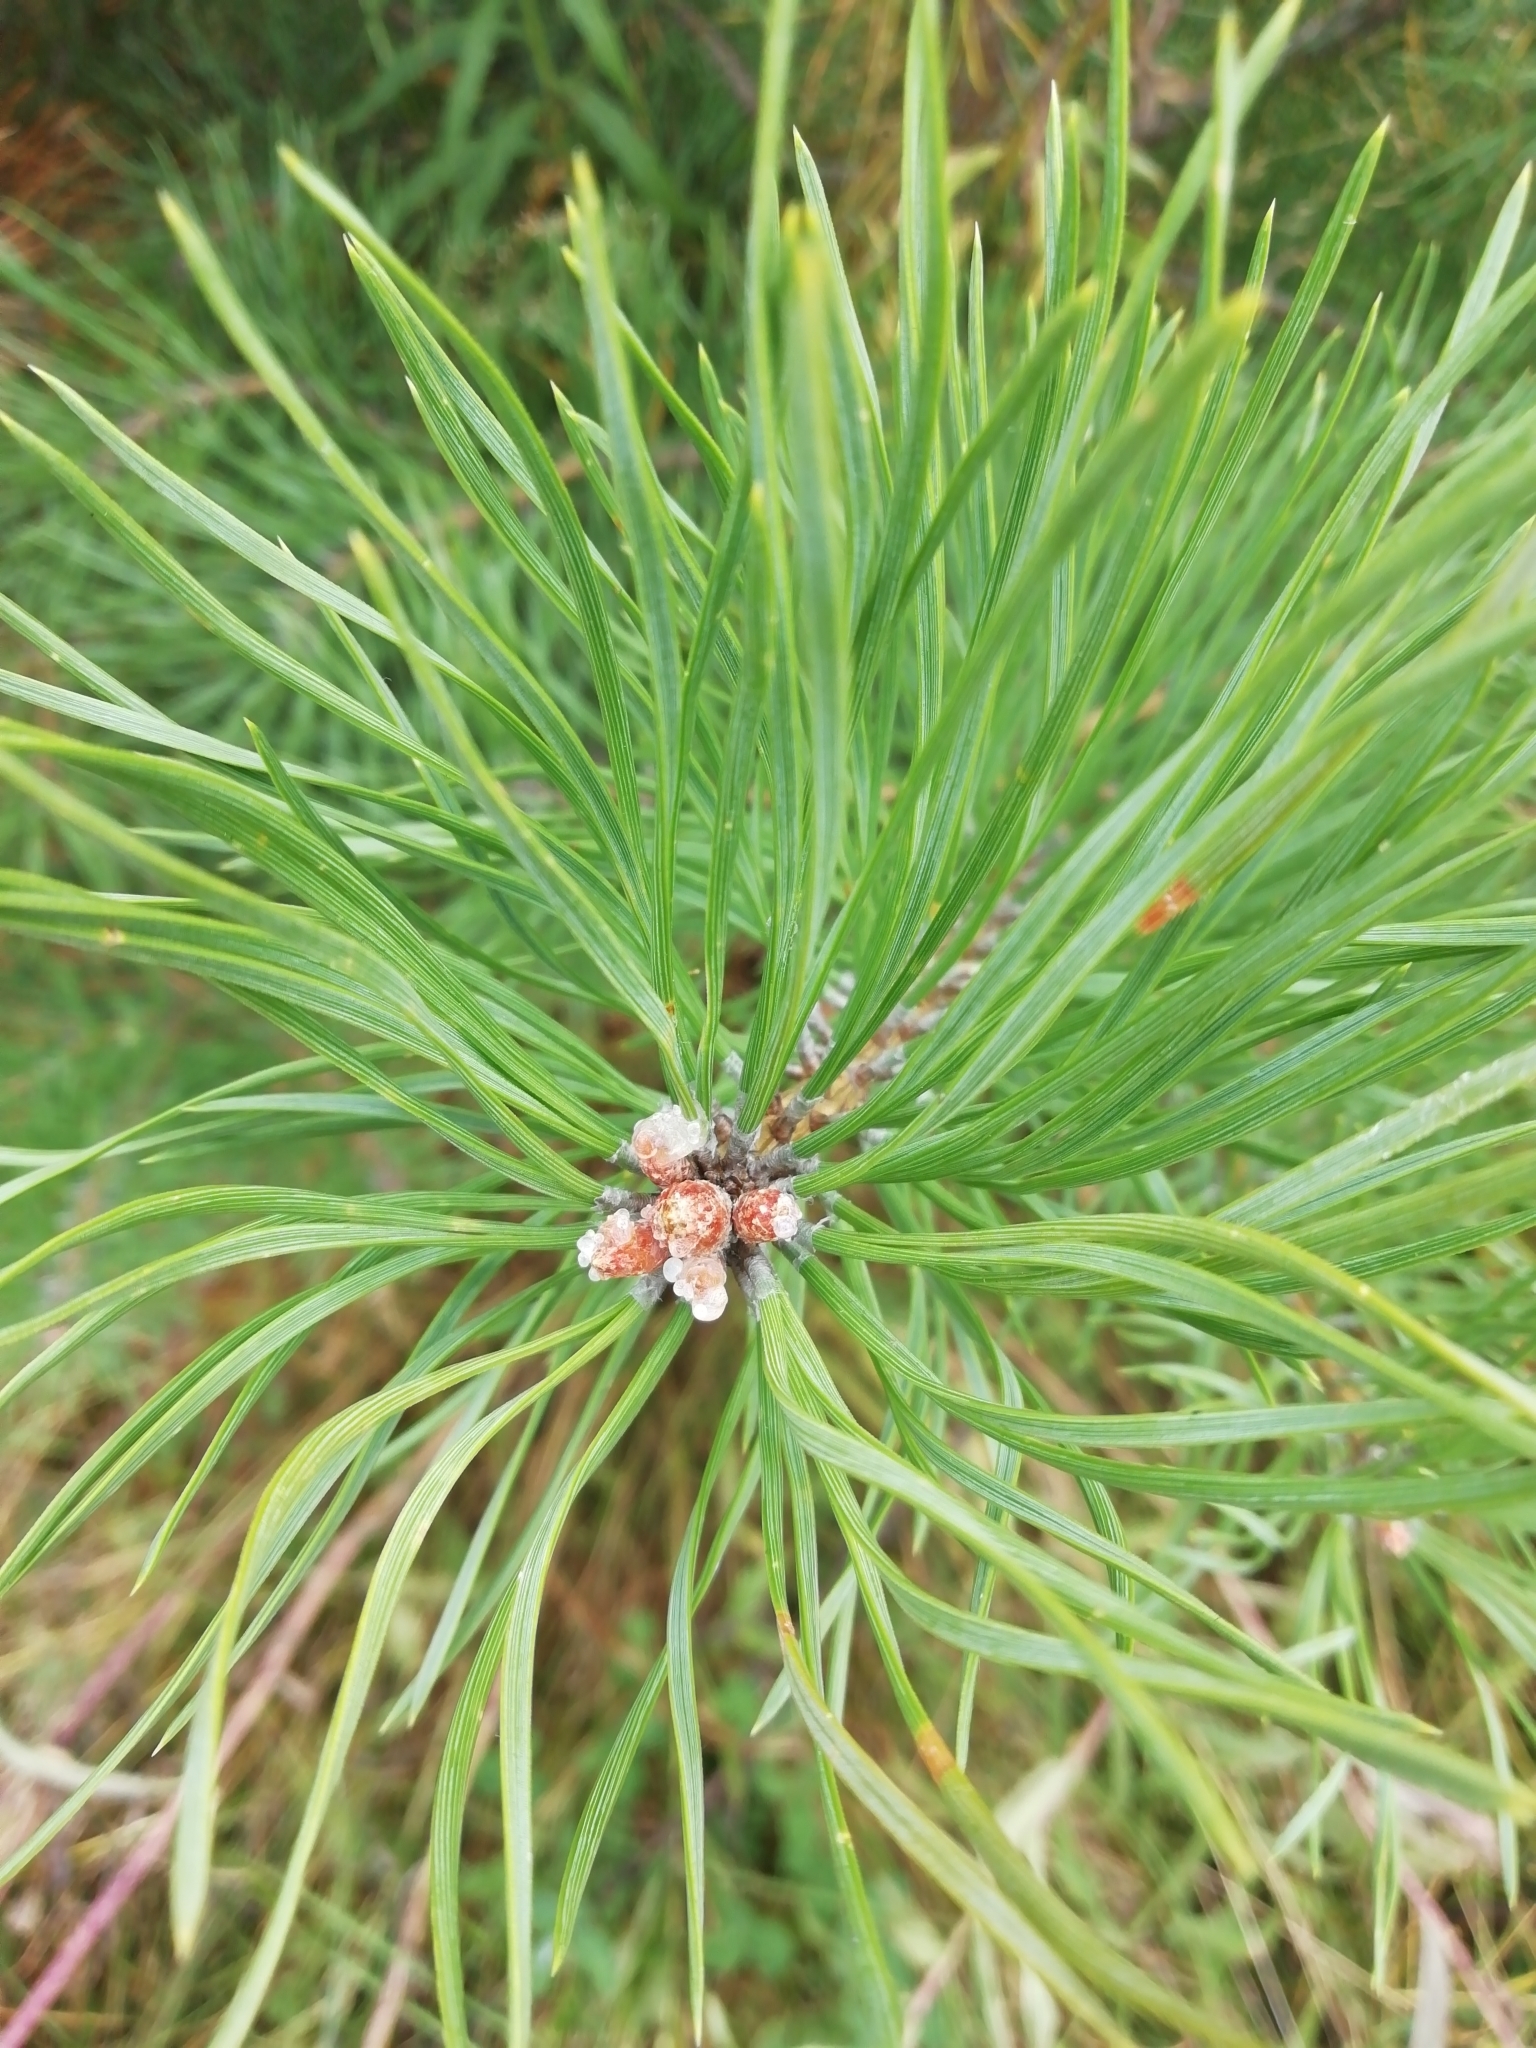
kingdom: Plantae
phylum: Tracheophyta
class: Pinopsida
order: Pinales
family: Pinaceae
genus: Pinus
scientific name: Pinus sylvestris
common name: Scots pine
